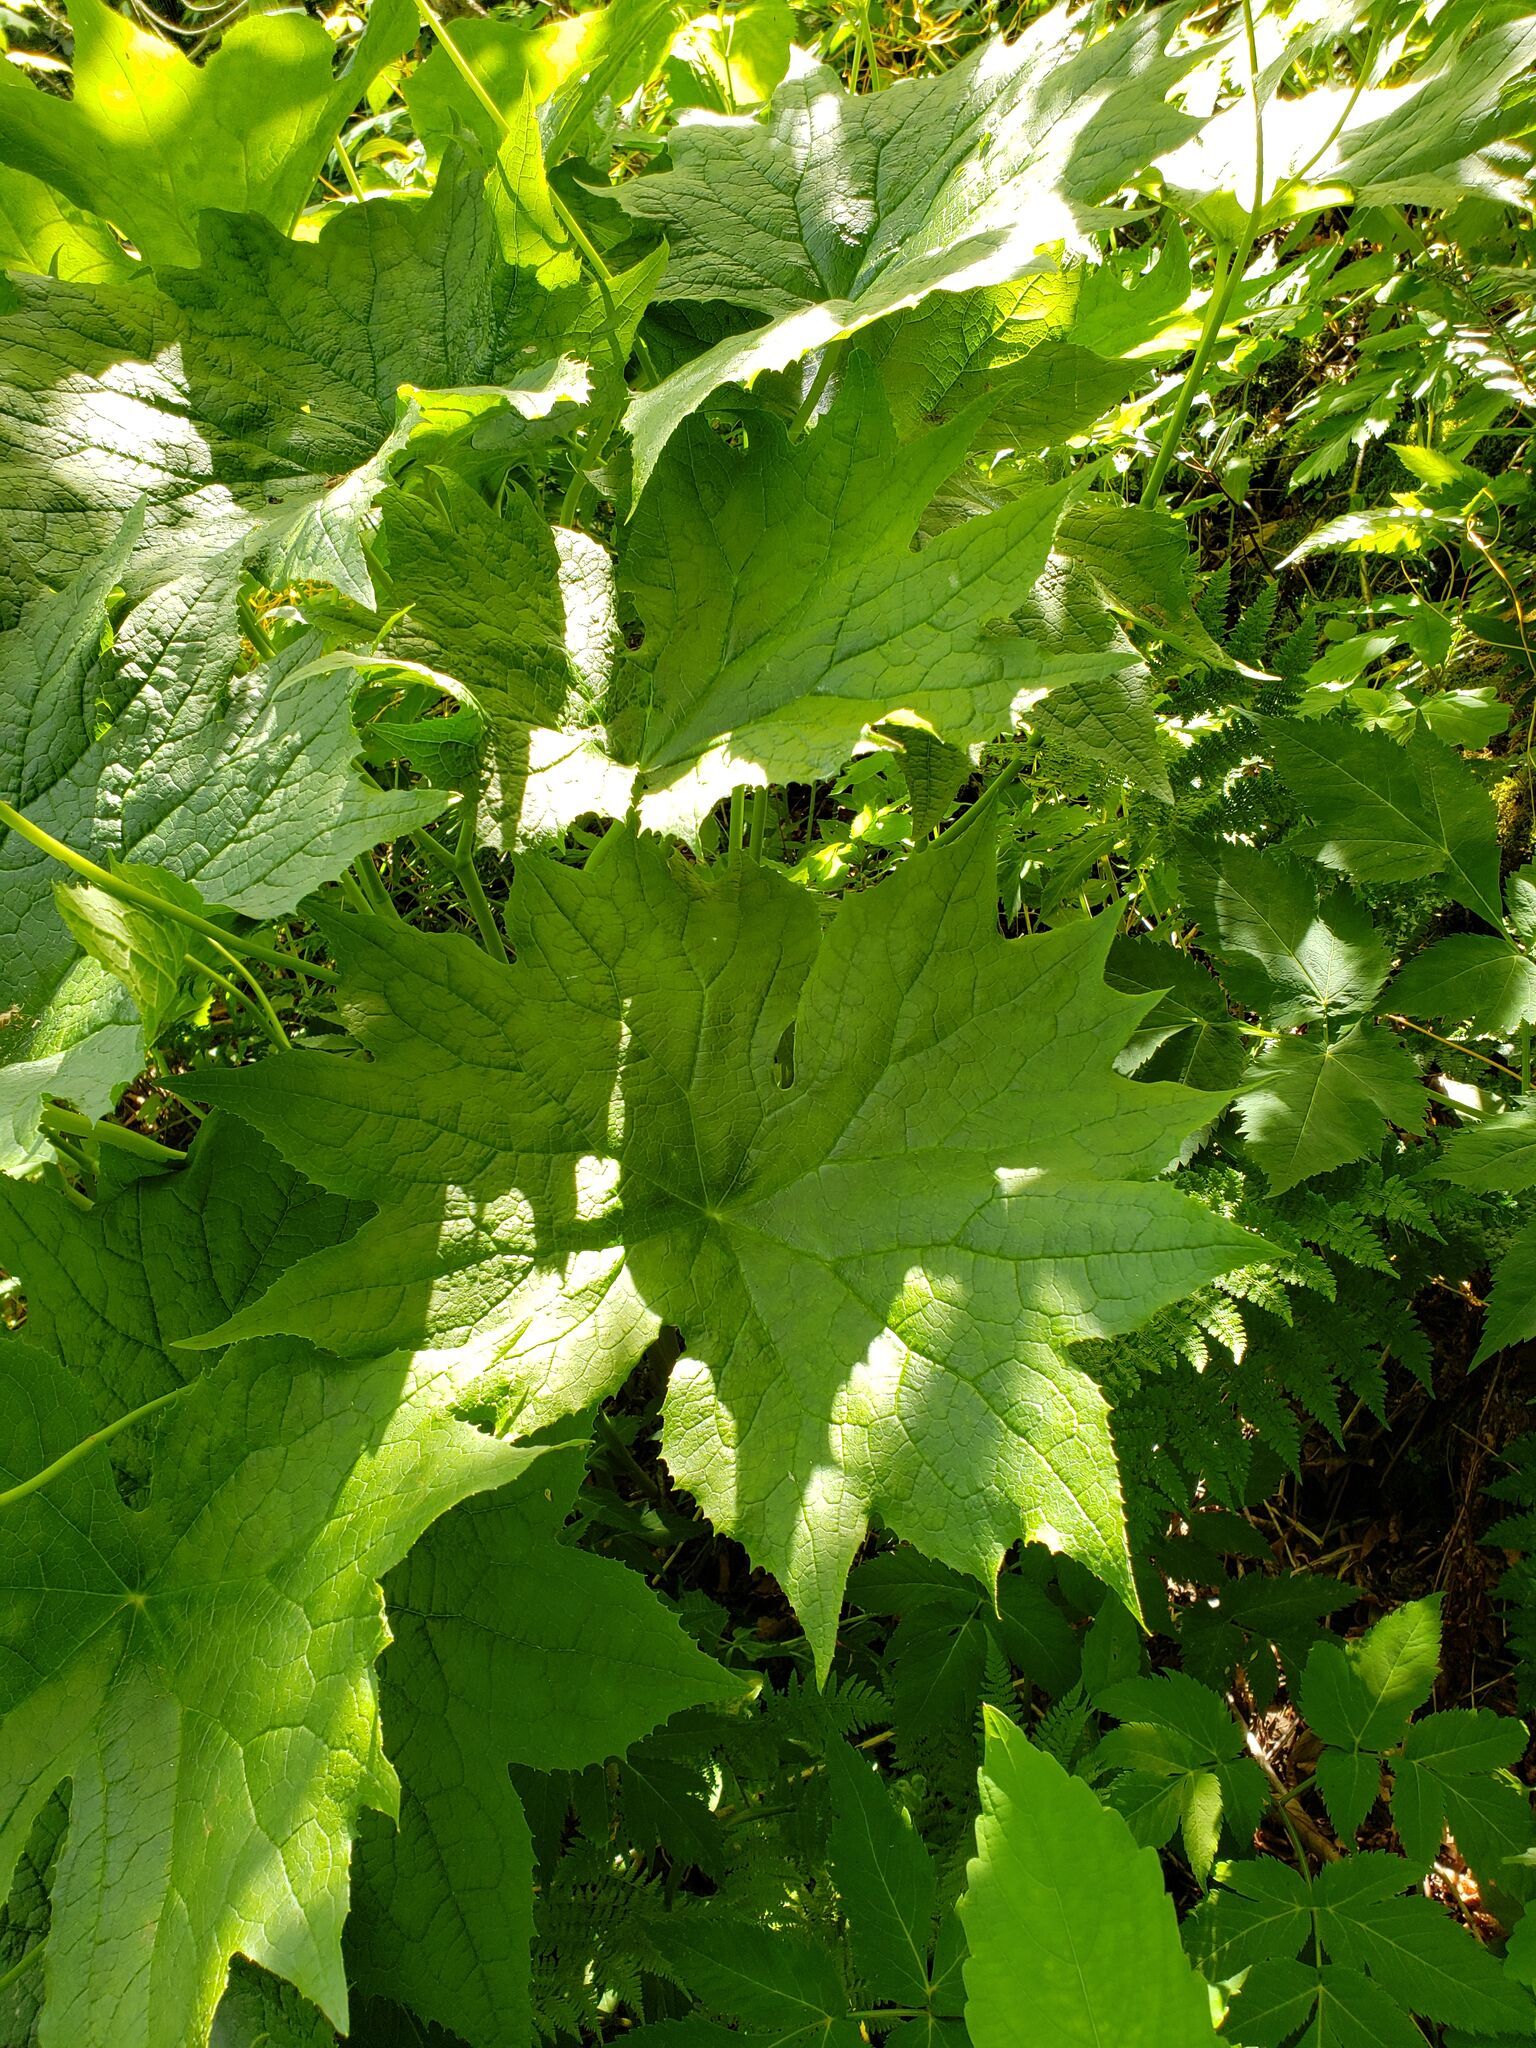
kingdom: Plantae
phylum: Tracheophyta
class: Magnoliopsida
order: Ranunculales
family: Berberidaceae
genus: Diphylleia
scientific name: Diphylleia cymosa
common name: Umbrella-leaf
